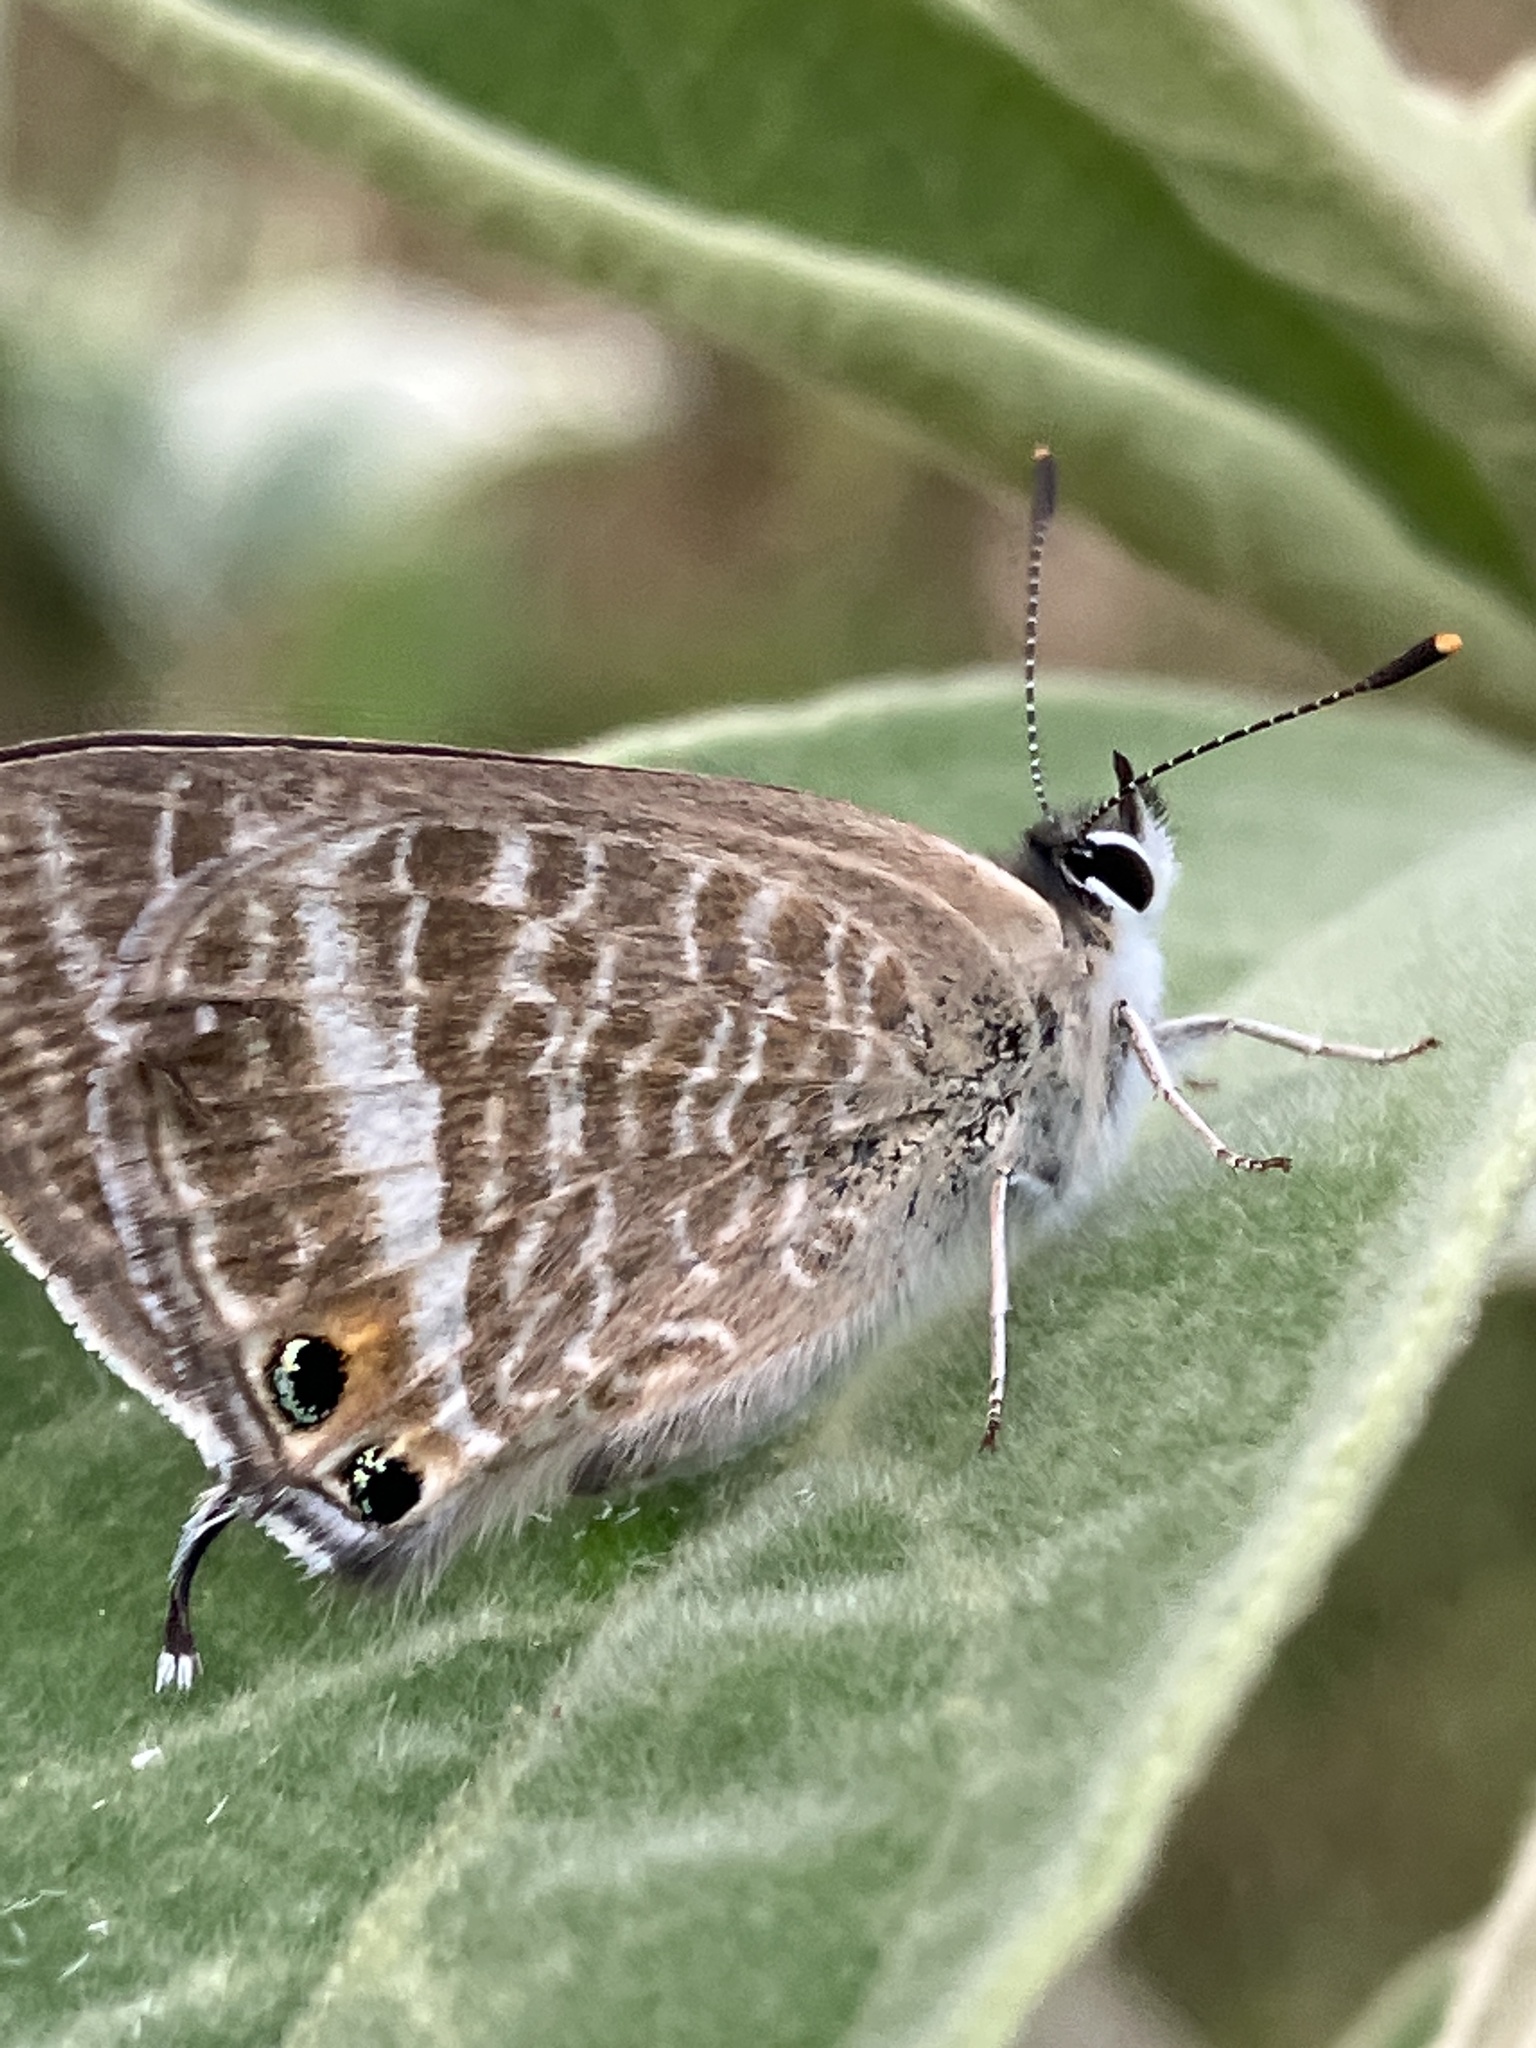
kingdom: Animalia
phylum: Arthropoda
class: Insecta
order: Lepidoptera
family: Lycaenidae
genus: Lampides
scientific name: Lampides boeticus
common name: Long-tailed blue
